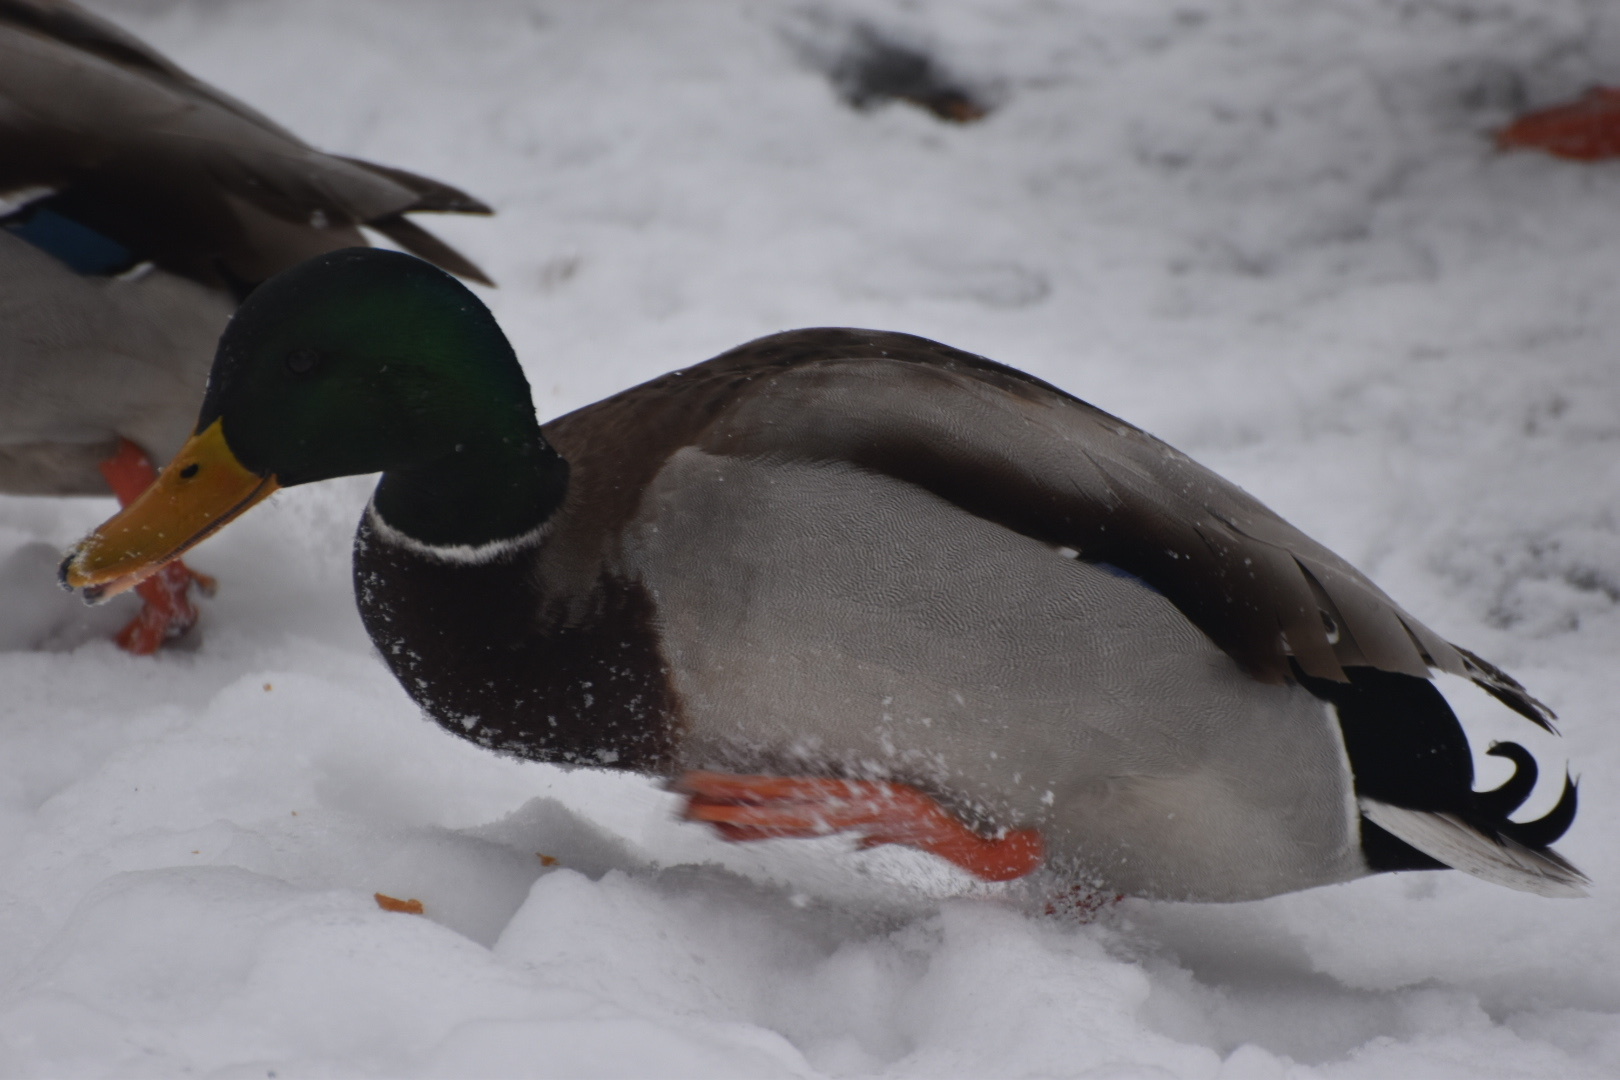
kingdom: Animalia
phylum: Chordata
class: Aves
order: Anseriformes
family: Anatidae
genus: Anas
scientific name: Anas platyrhynchos
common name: Mallard
